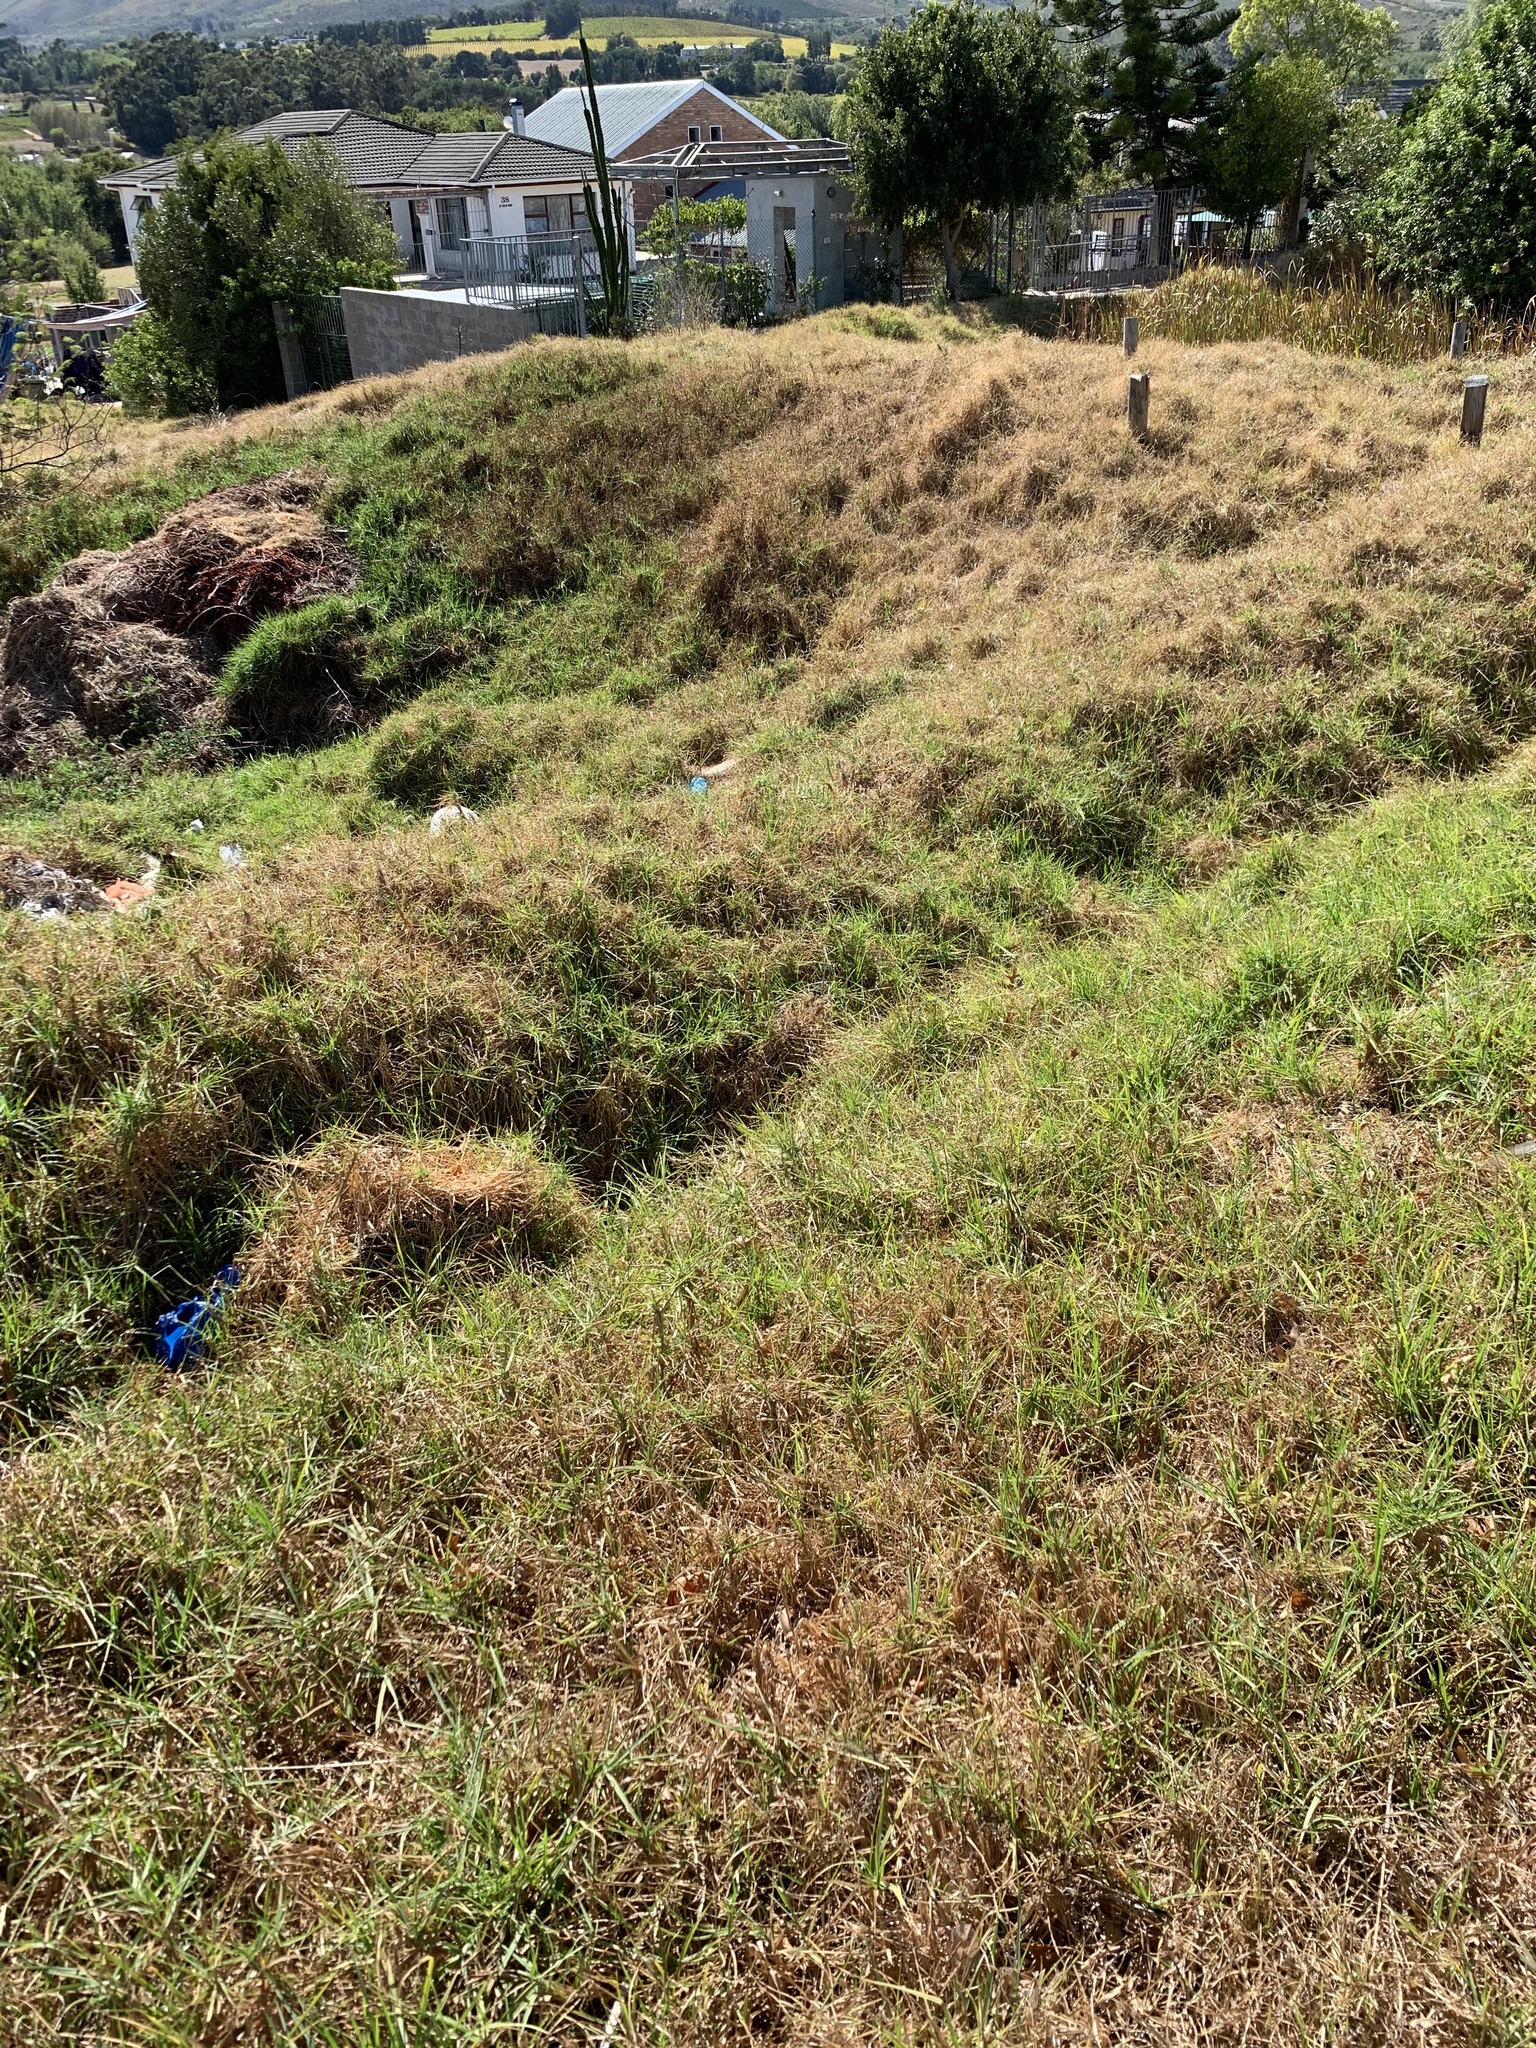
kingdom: Plantae
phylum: Tracheophyta
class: Liliopsida
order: Poales
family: Poaceae
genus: Cenchrus
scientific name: Cenchrus clandestinus
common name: Kikuyugrass
